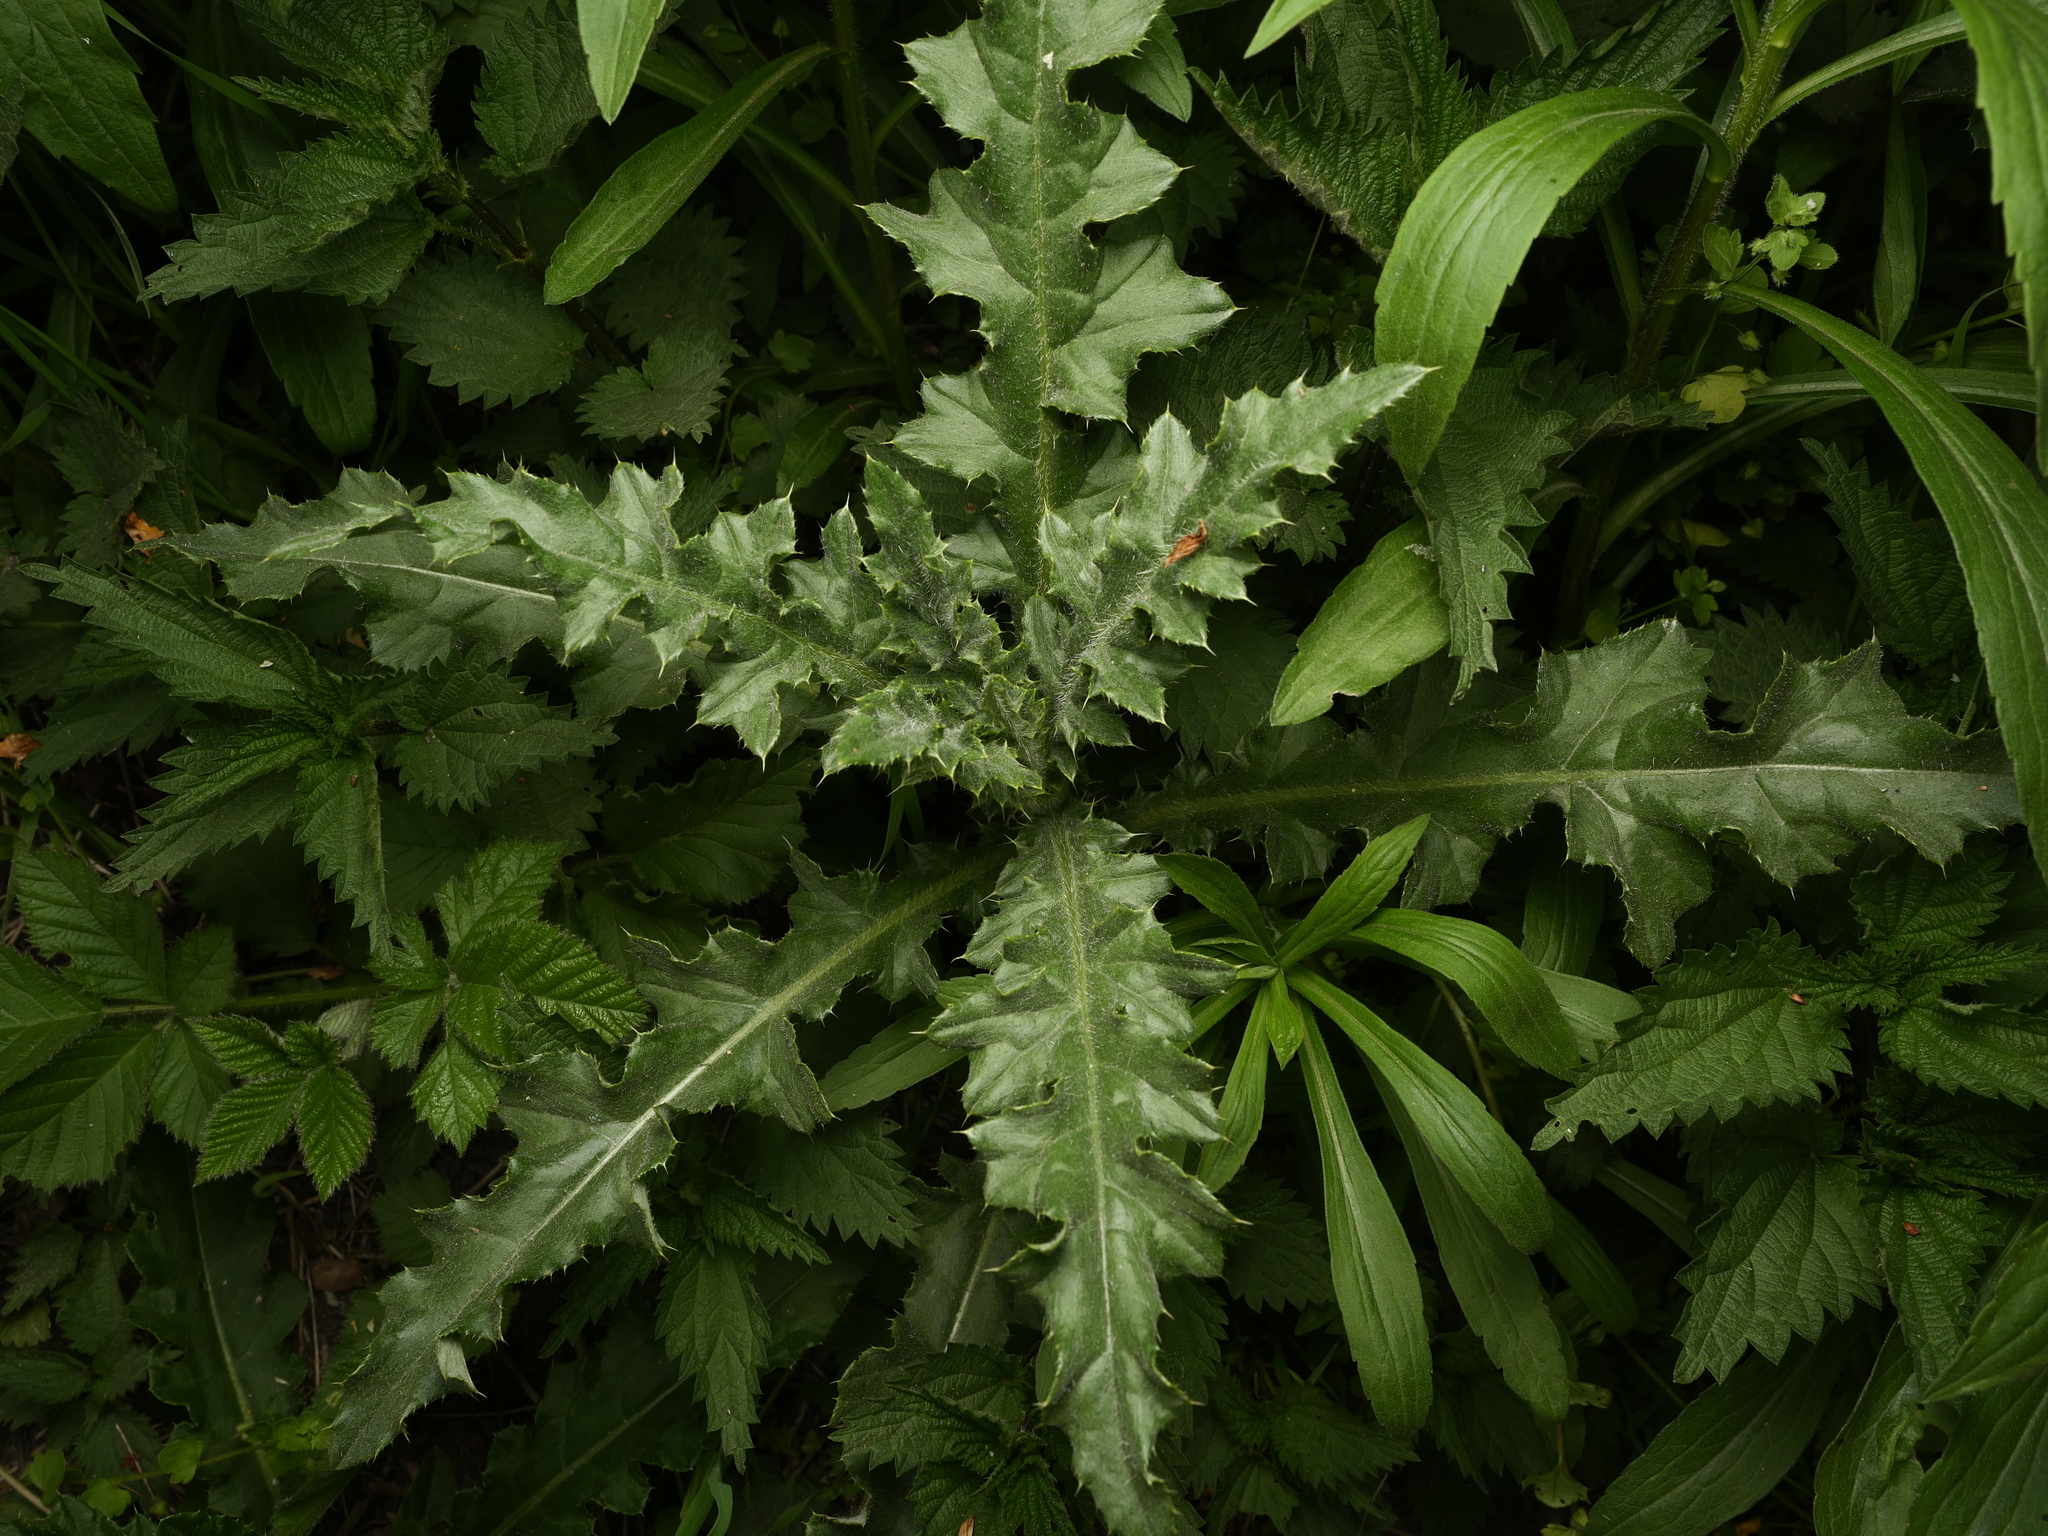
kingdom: Plantae
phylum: Tracheophyta
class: Magnoliopsida
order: Asterales
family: Asteraceae
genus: Cirsium
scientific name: Cirsium arvense
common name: Creeping thistle
